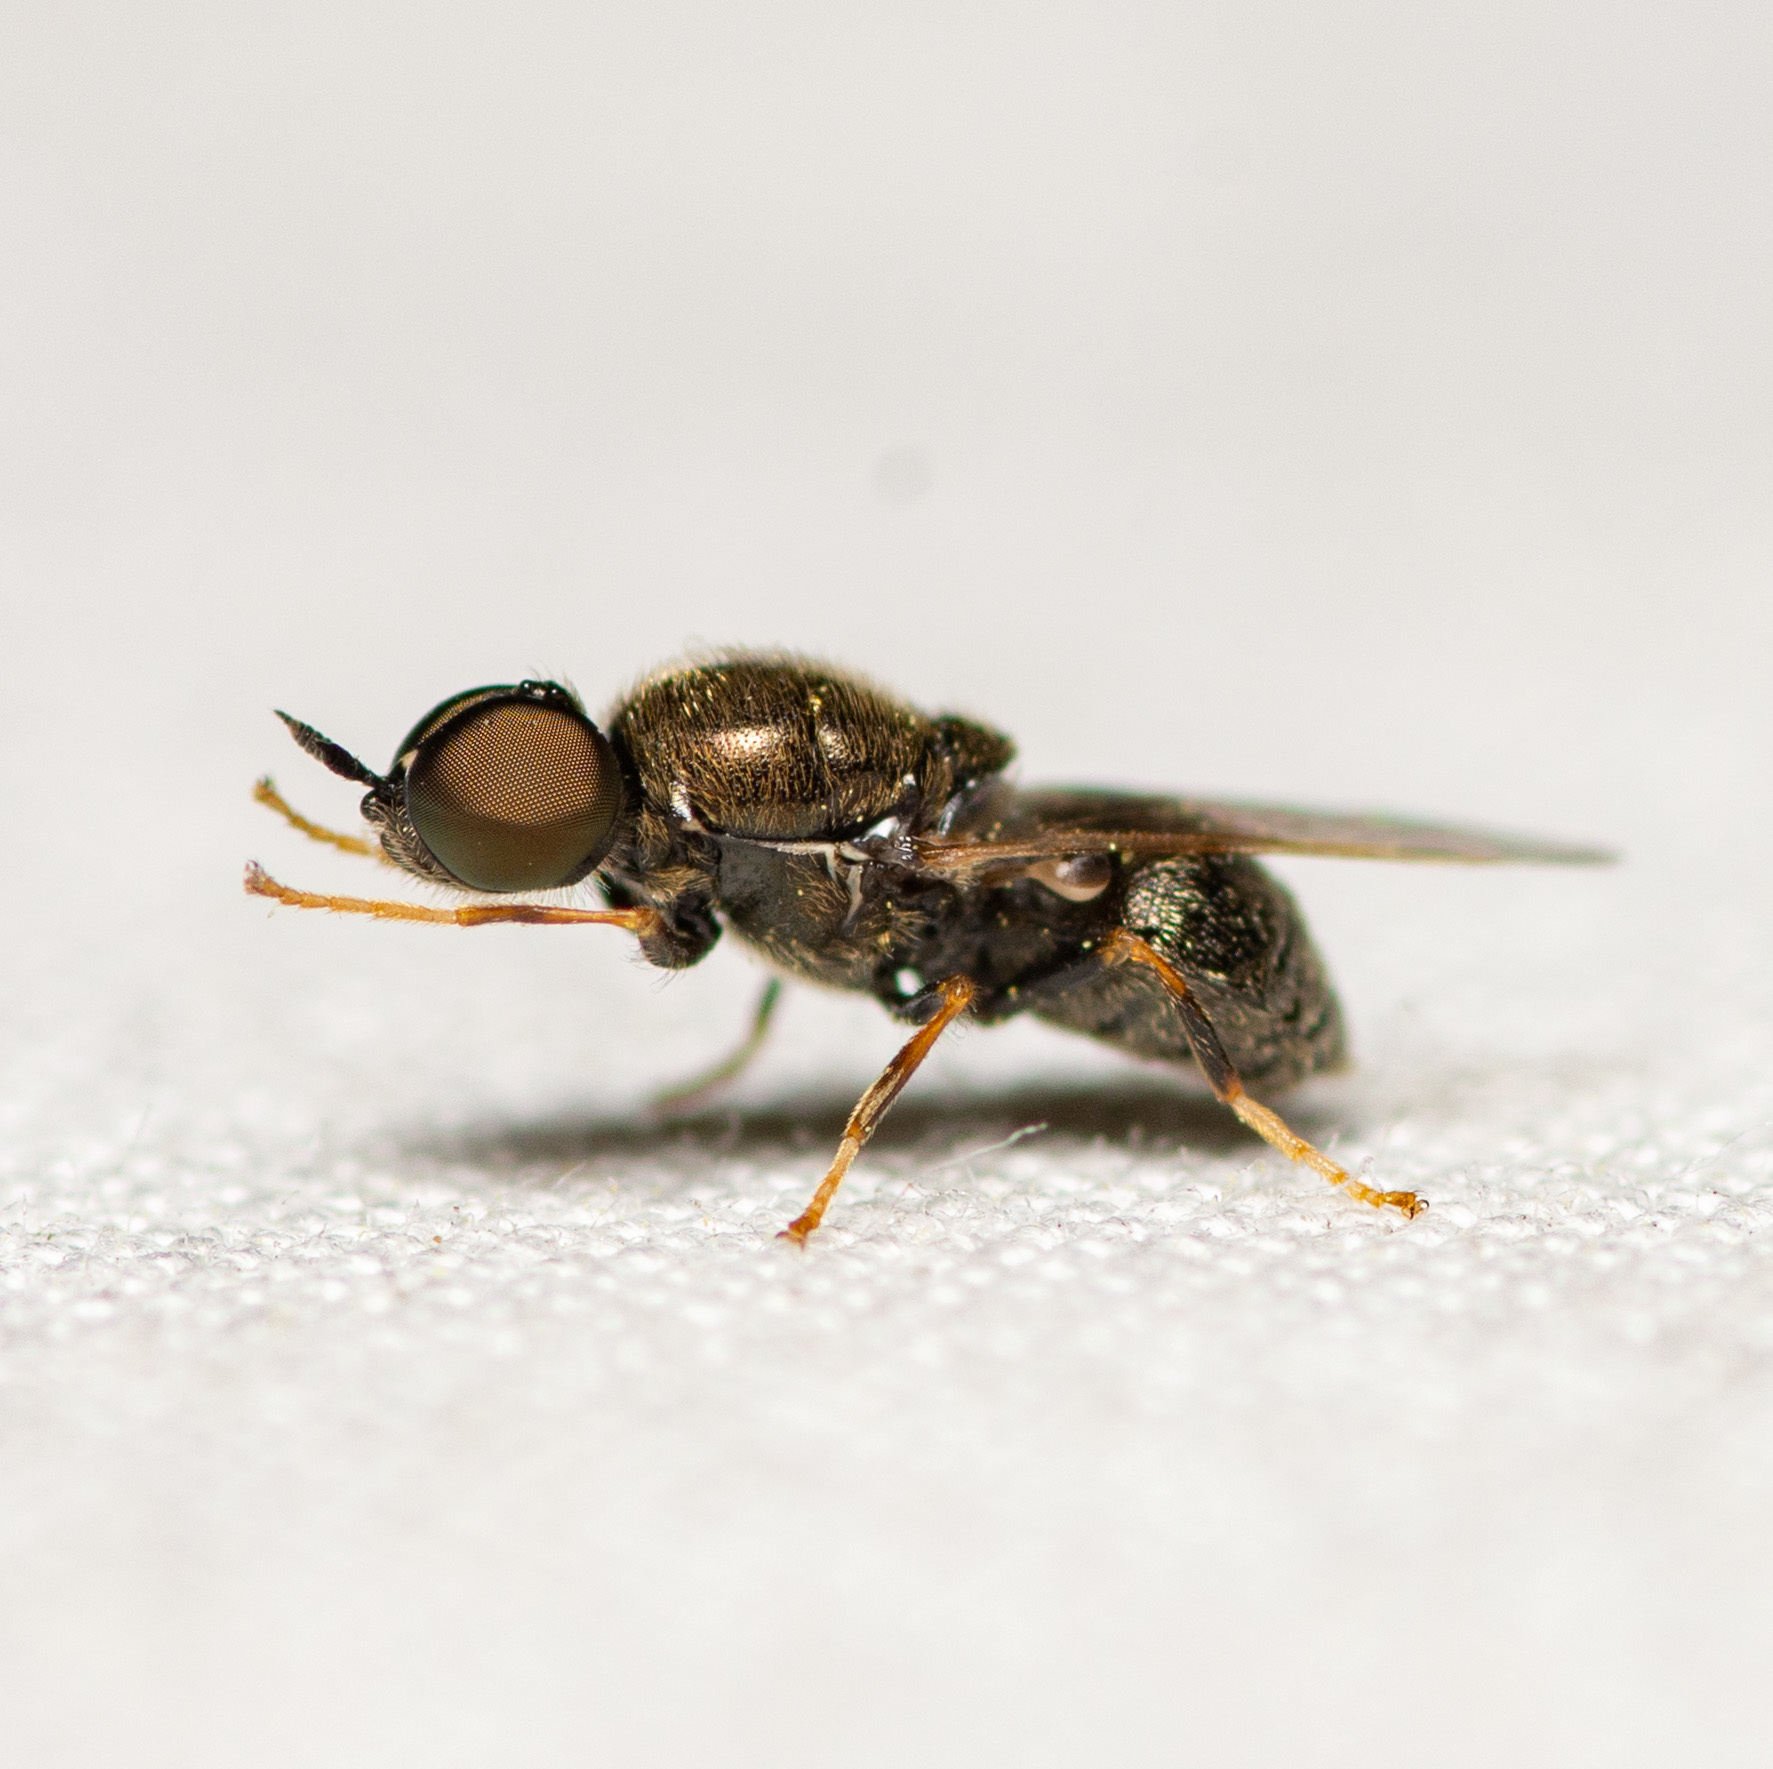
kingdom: Animalia
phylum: Arthropoda
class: Insecta
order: Diptera
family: Stratiomyidae
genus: Nemotelus
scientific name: Nemotelus bruesii
